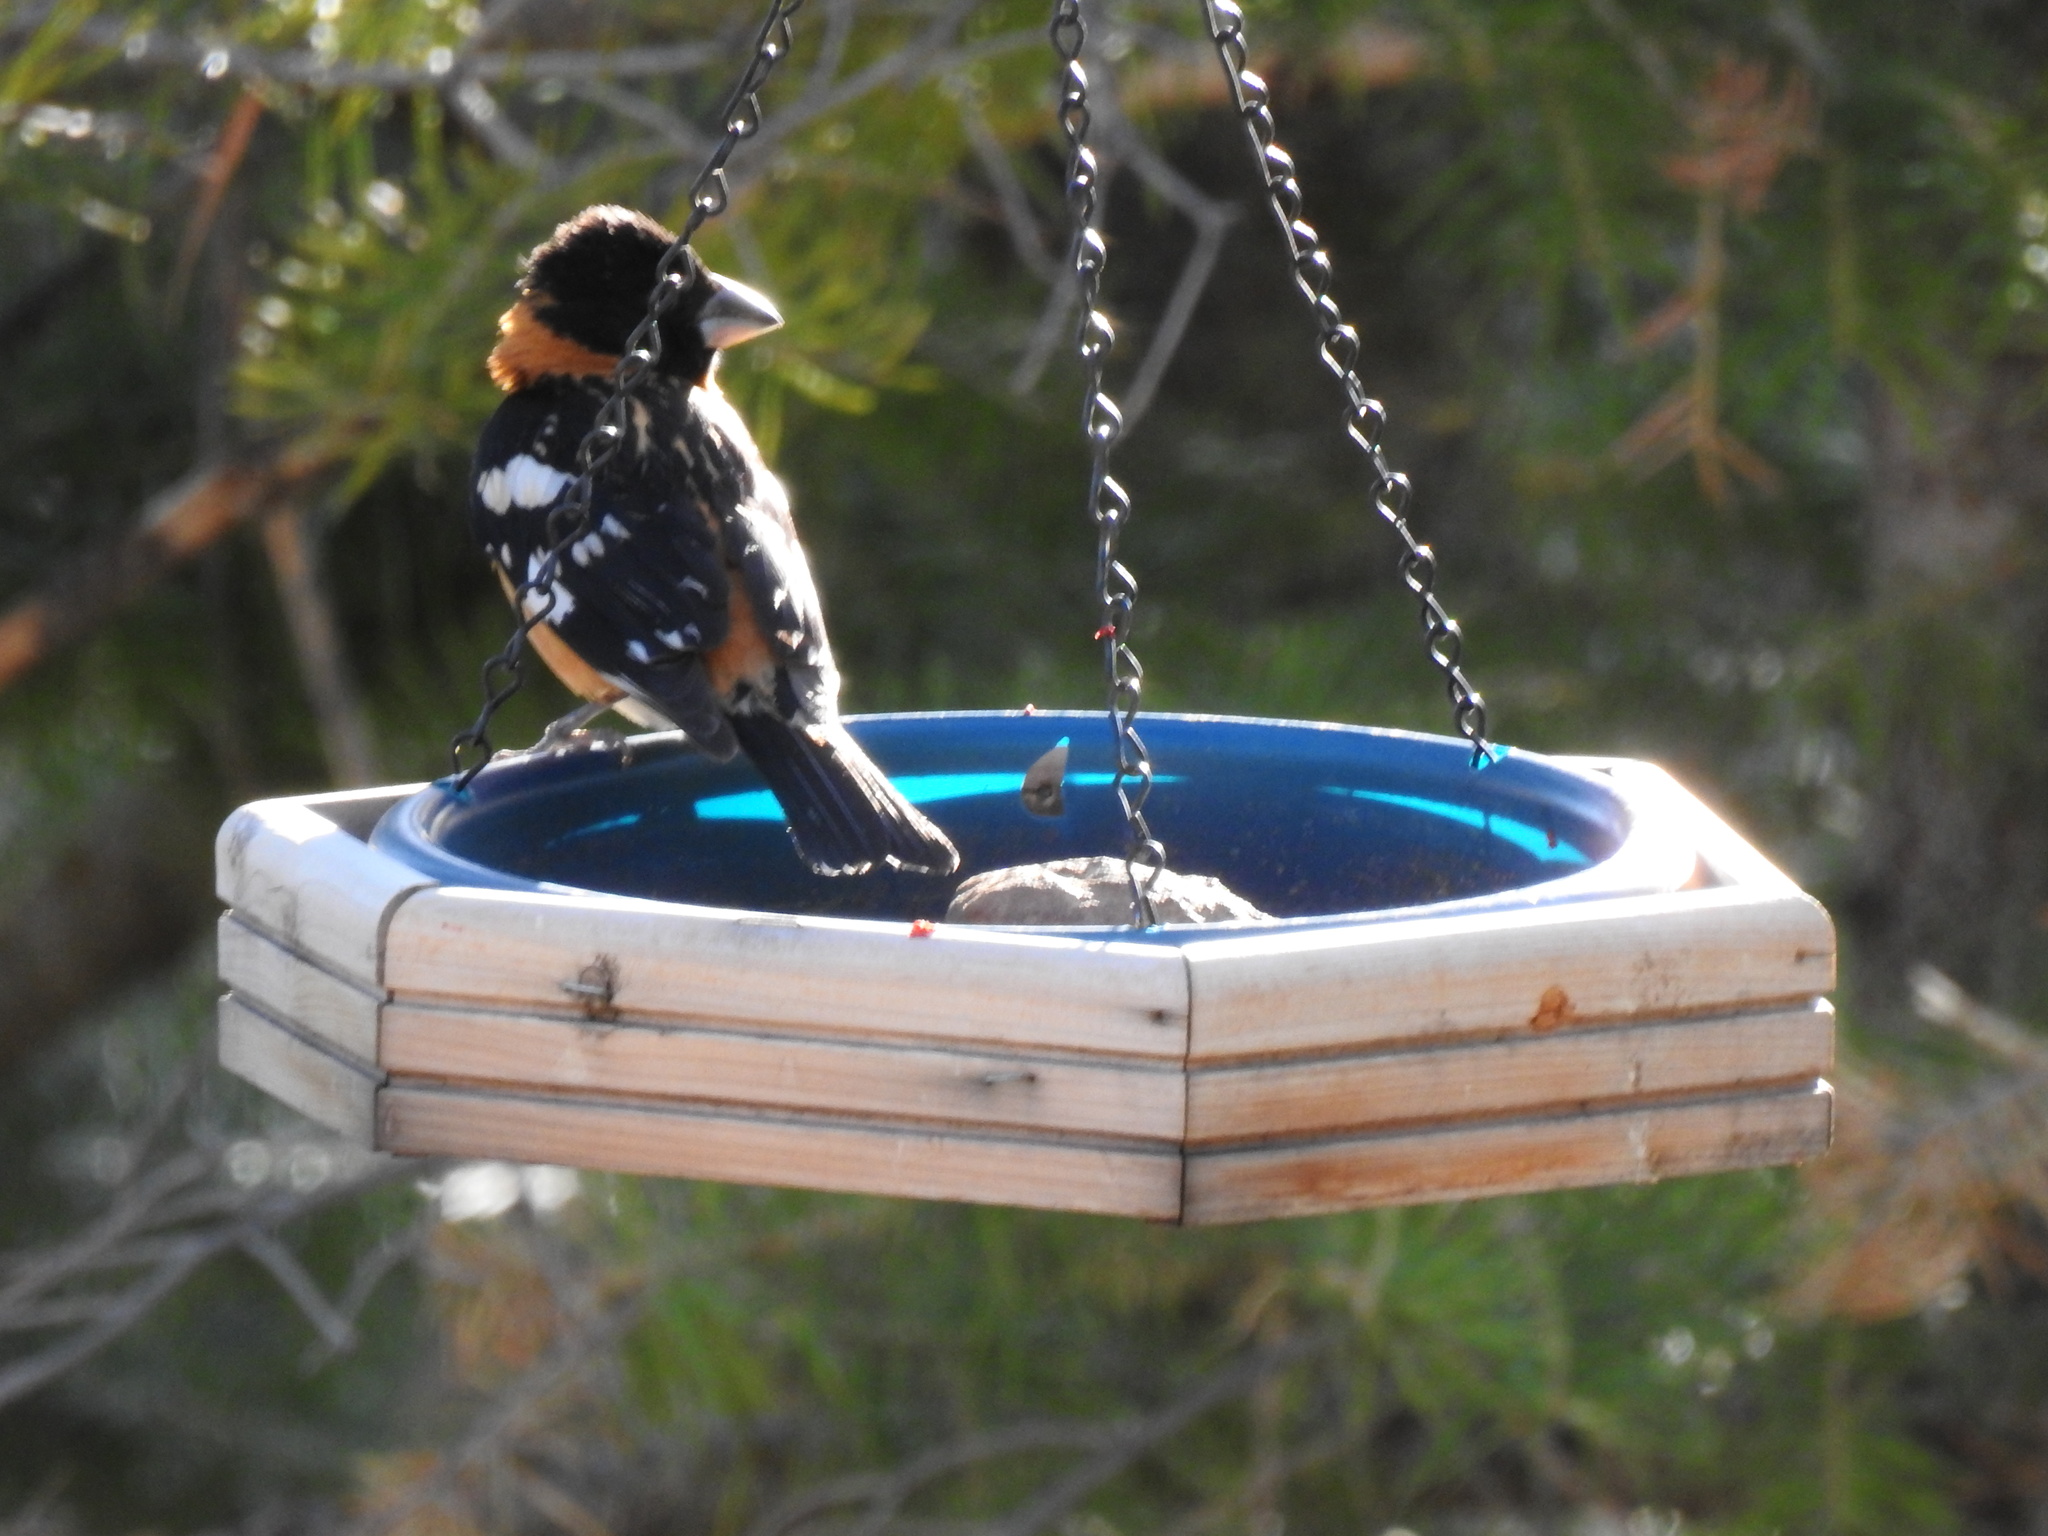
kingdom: Animalia
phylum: Chordata
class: Aves
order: Passeriformes
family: Cardinalidae
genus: Pheucticus
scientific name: Pheucticus melanocephalus
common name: Black-headed grosbeak
